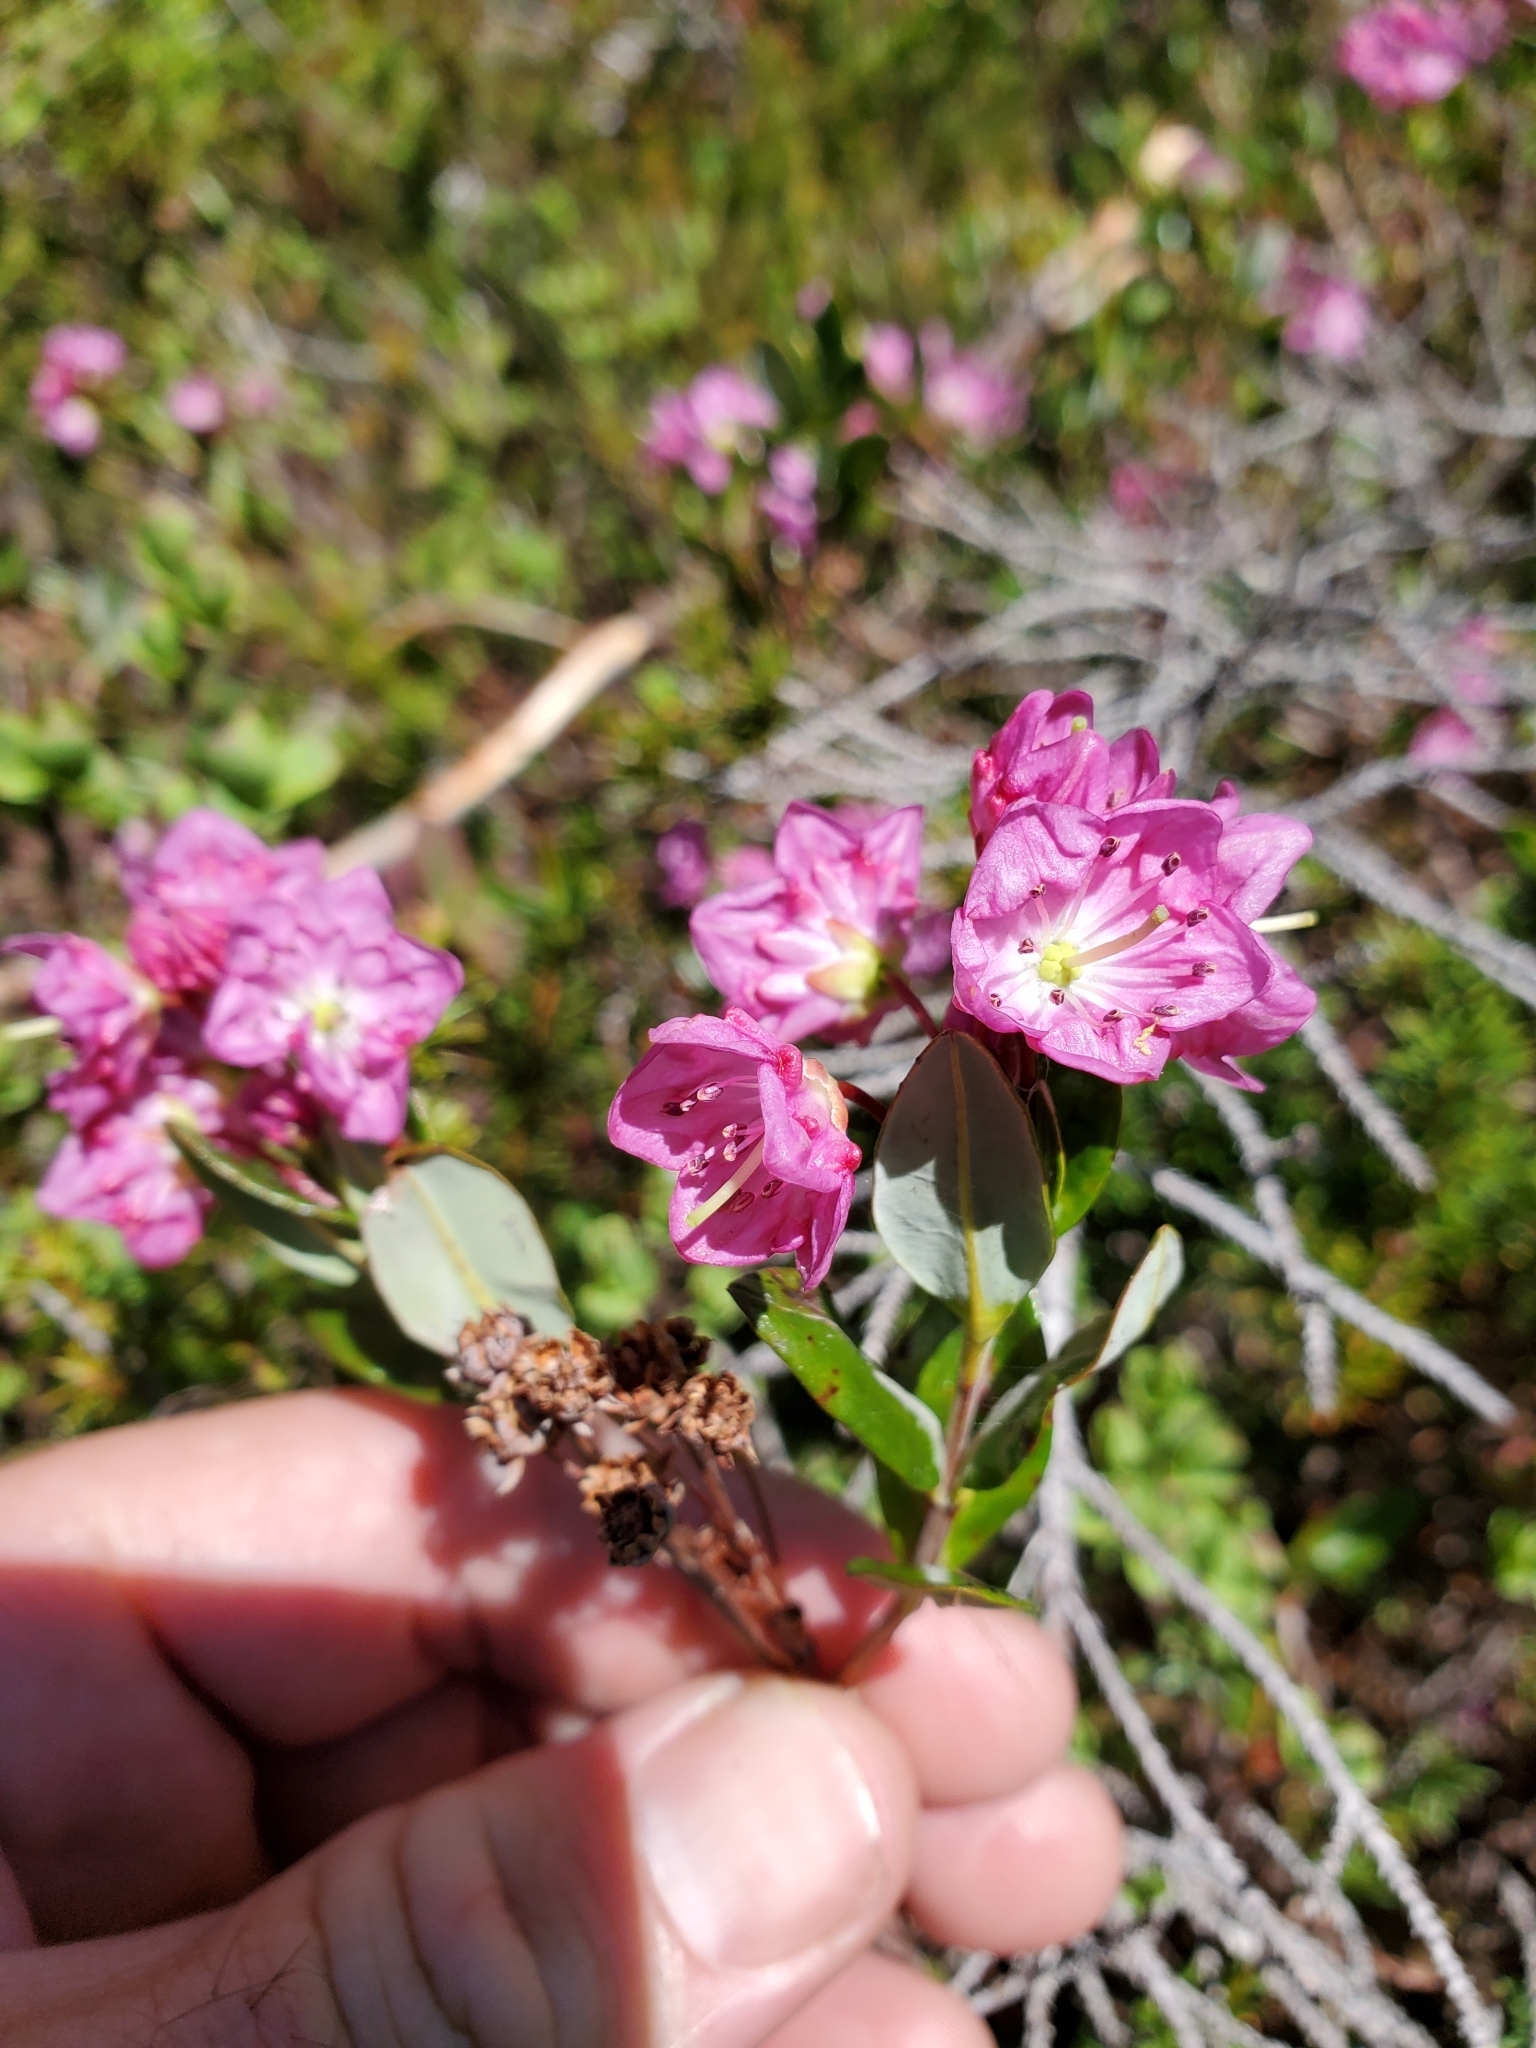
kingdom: Plantae
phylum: Tracheophyta
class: Magnoliopsida
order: Ericales
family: Ericaceae
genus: Kalmia
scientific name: Kalmia microphylla
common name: Alpine bog laurel
